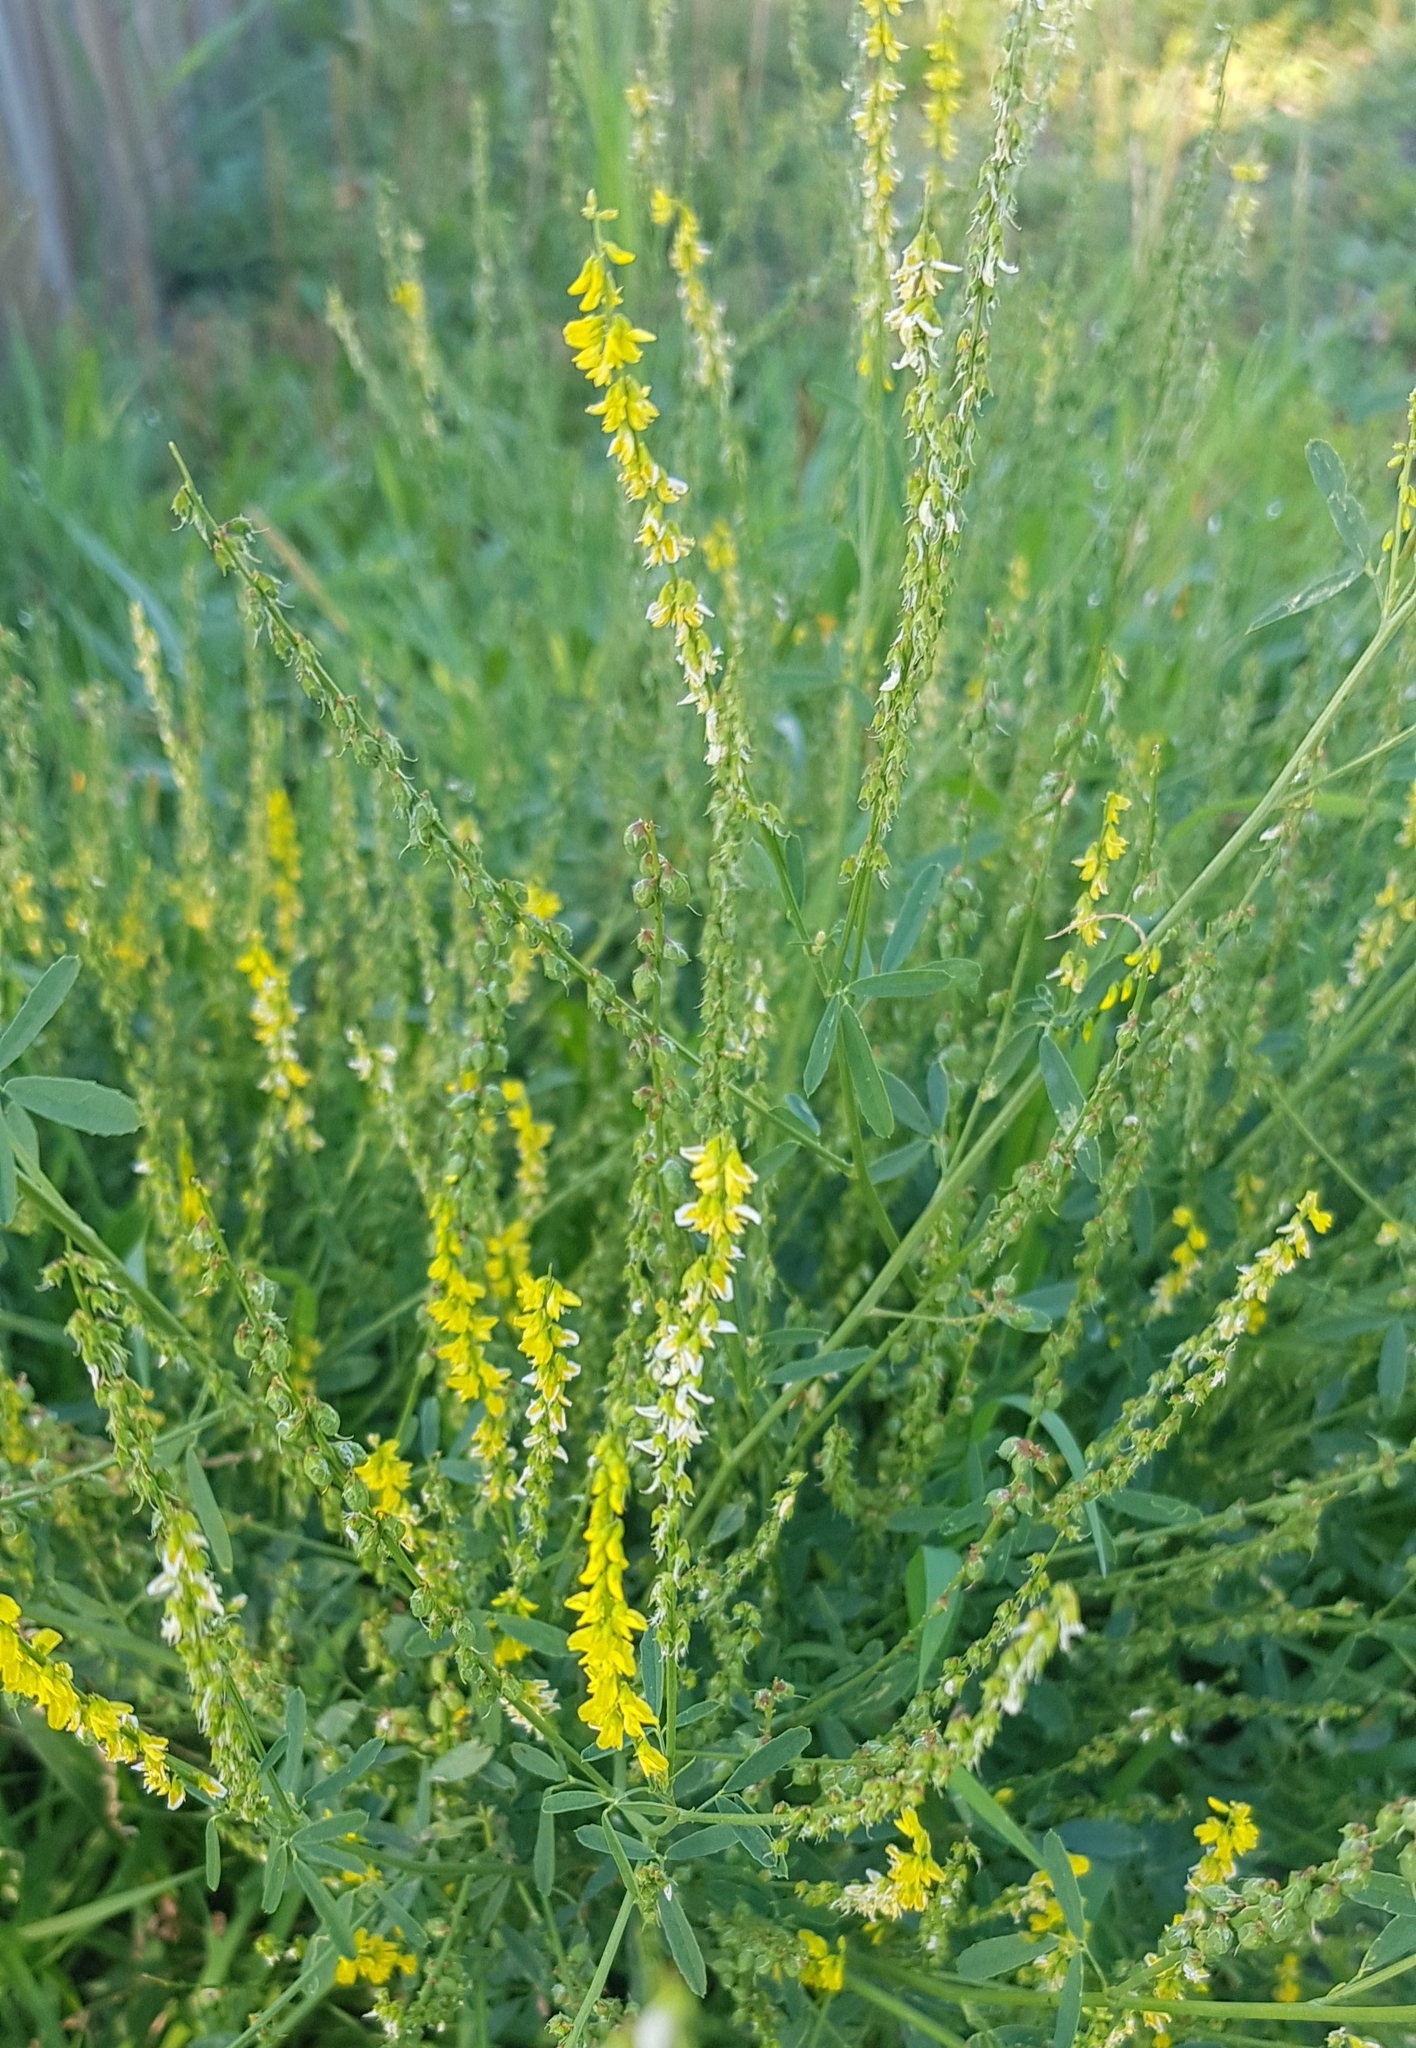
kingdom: Plantae
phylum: Tracheophyta
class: Magnoliopsida
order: Fabales
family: Fabaceae
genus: Melilotus
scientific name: Melilotus officinalis
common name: Sweetclover
